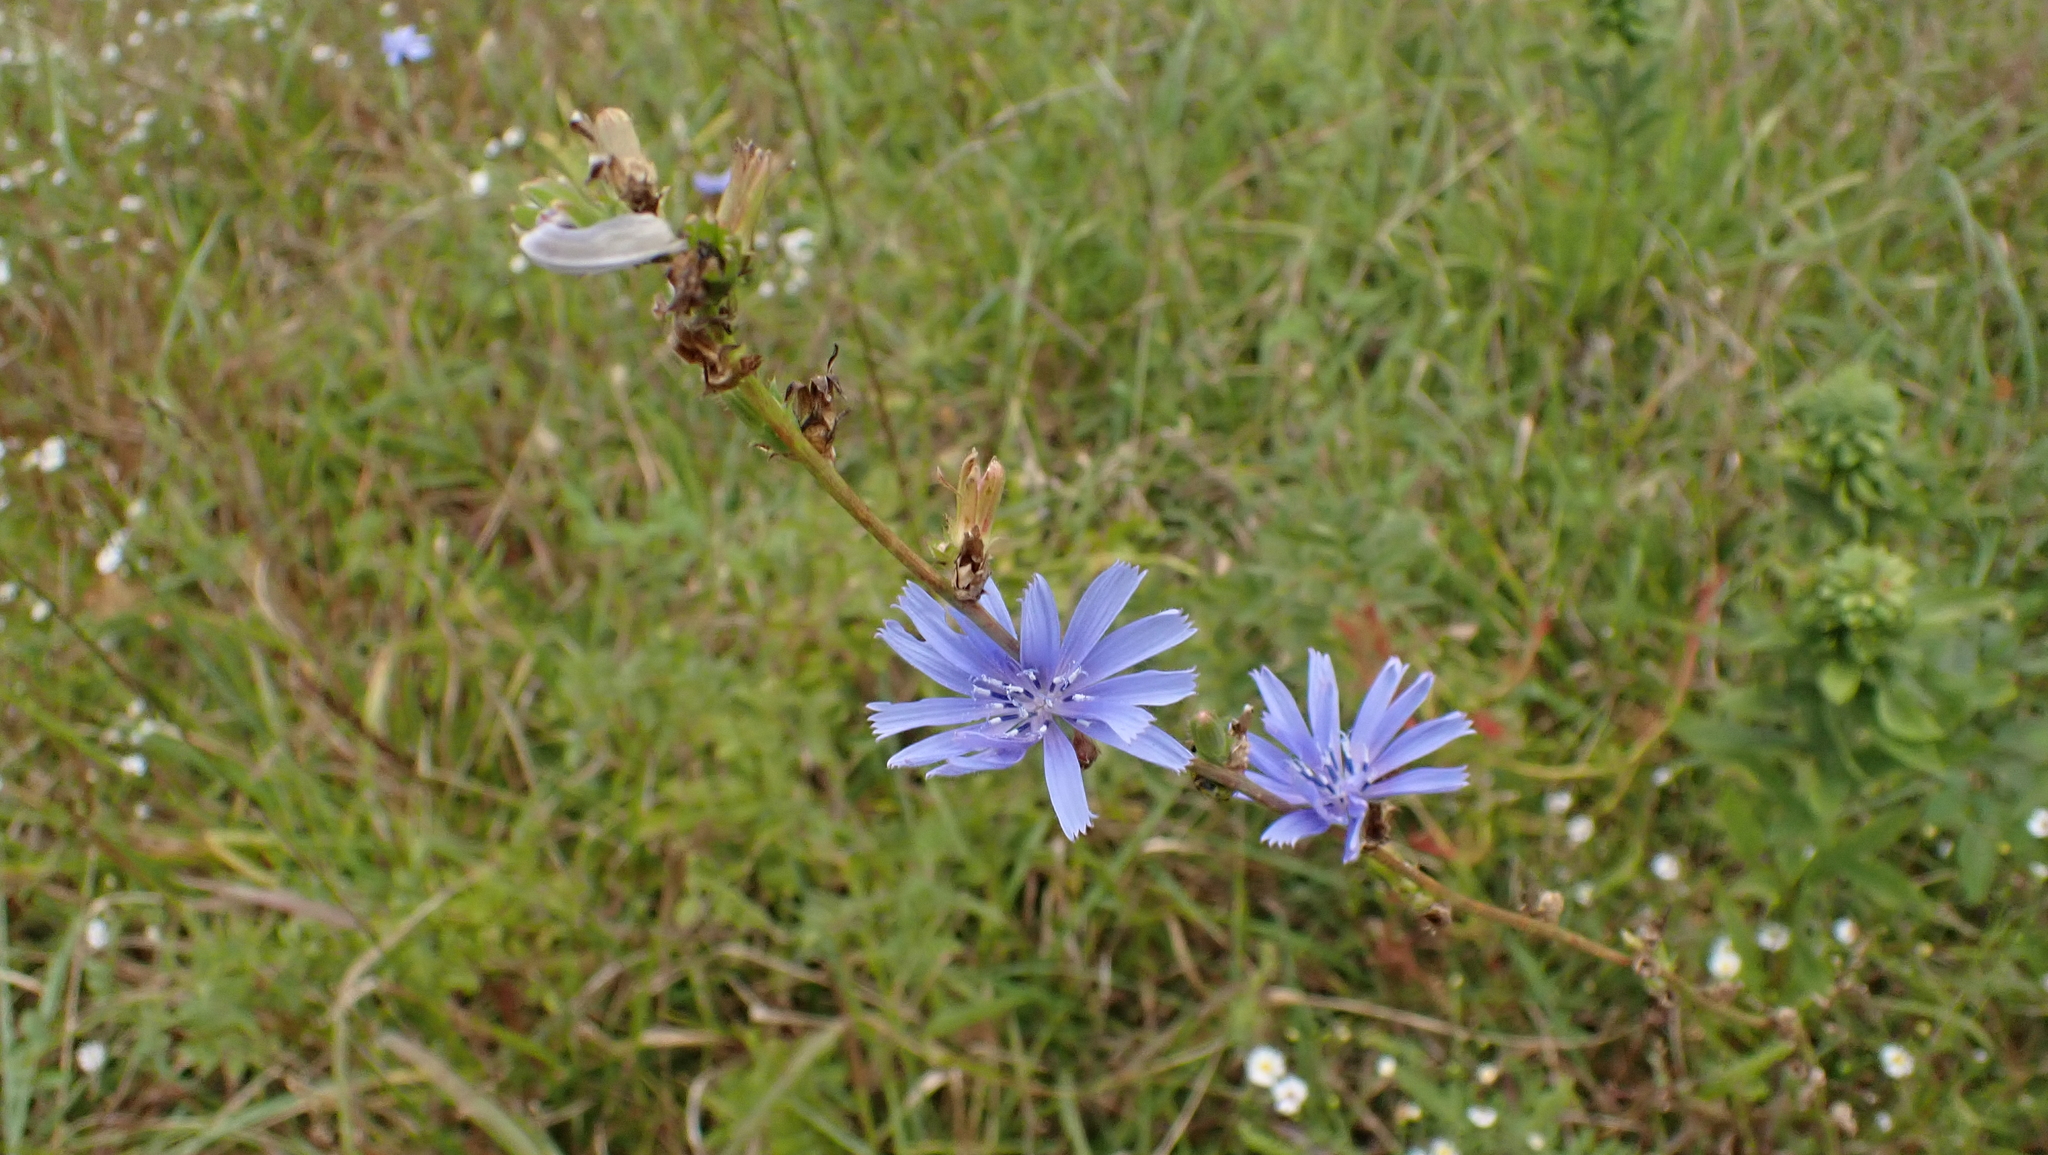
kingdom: Plantae
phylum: Tracheophyta
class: Magnoliopsida
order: Asterales
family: Asteraceae
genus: Cichorium
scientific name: Cichorium intybus
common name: Chicory
